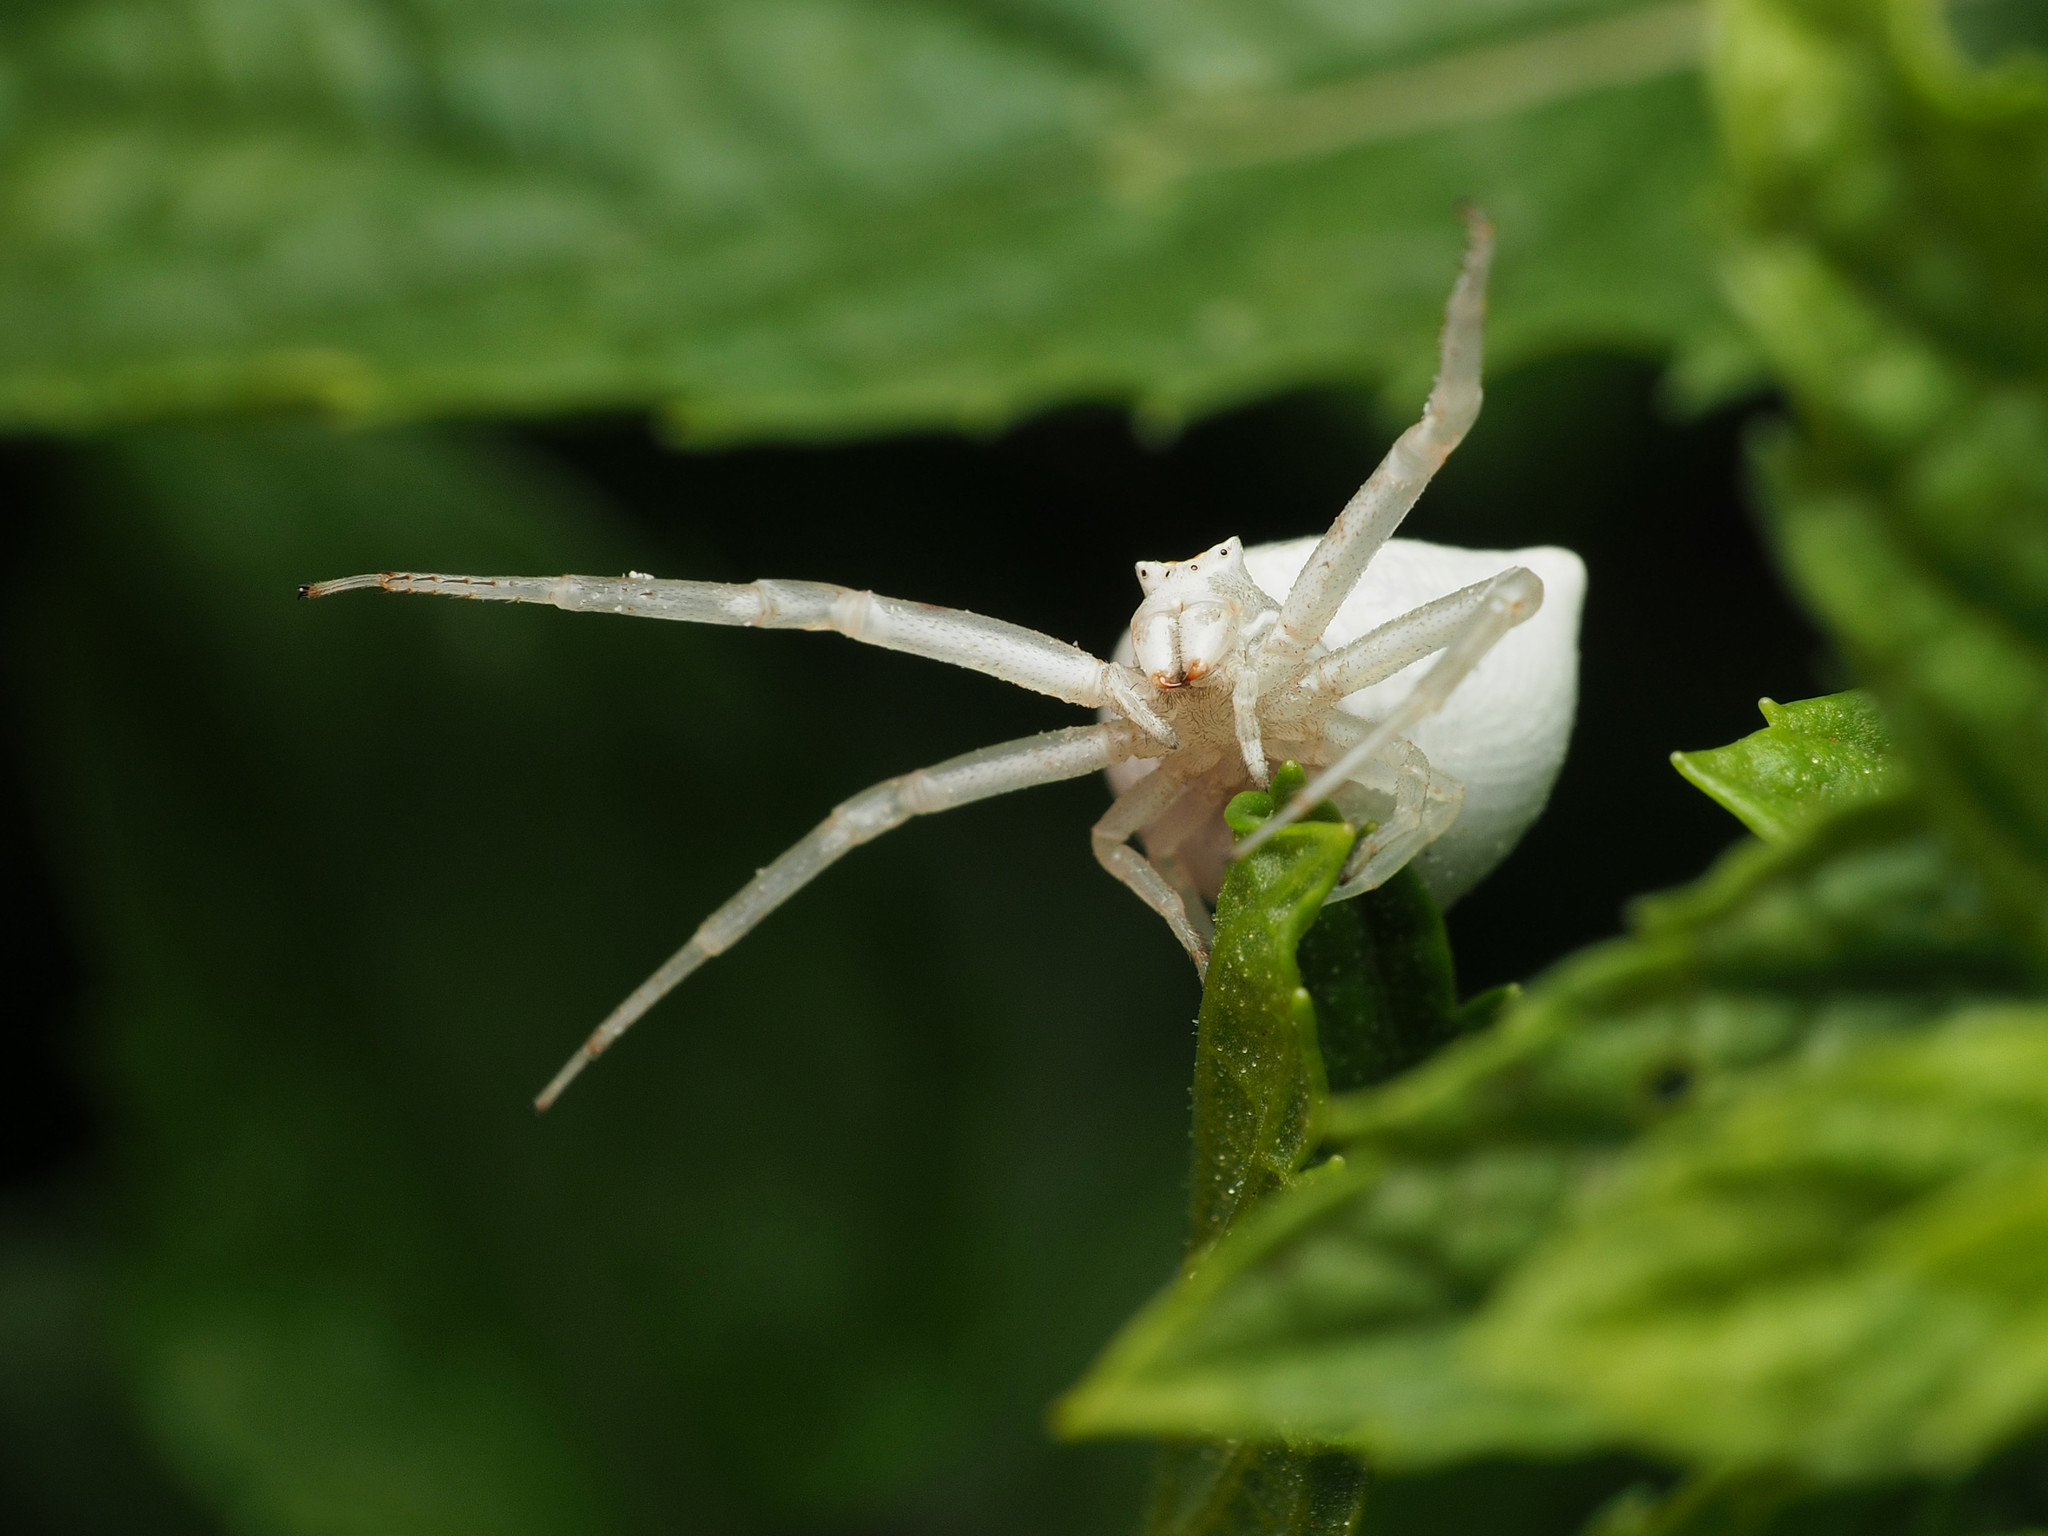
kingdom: Animalia
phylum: Arthropoda
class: Arachnida
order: Araneae
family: Thomisidae
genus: Thomisus
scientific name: Thomisus onustus
